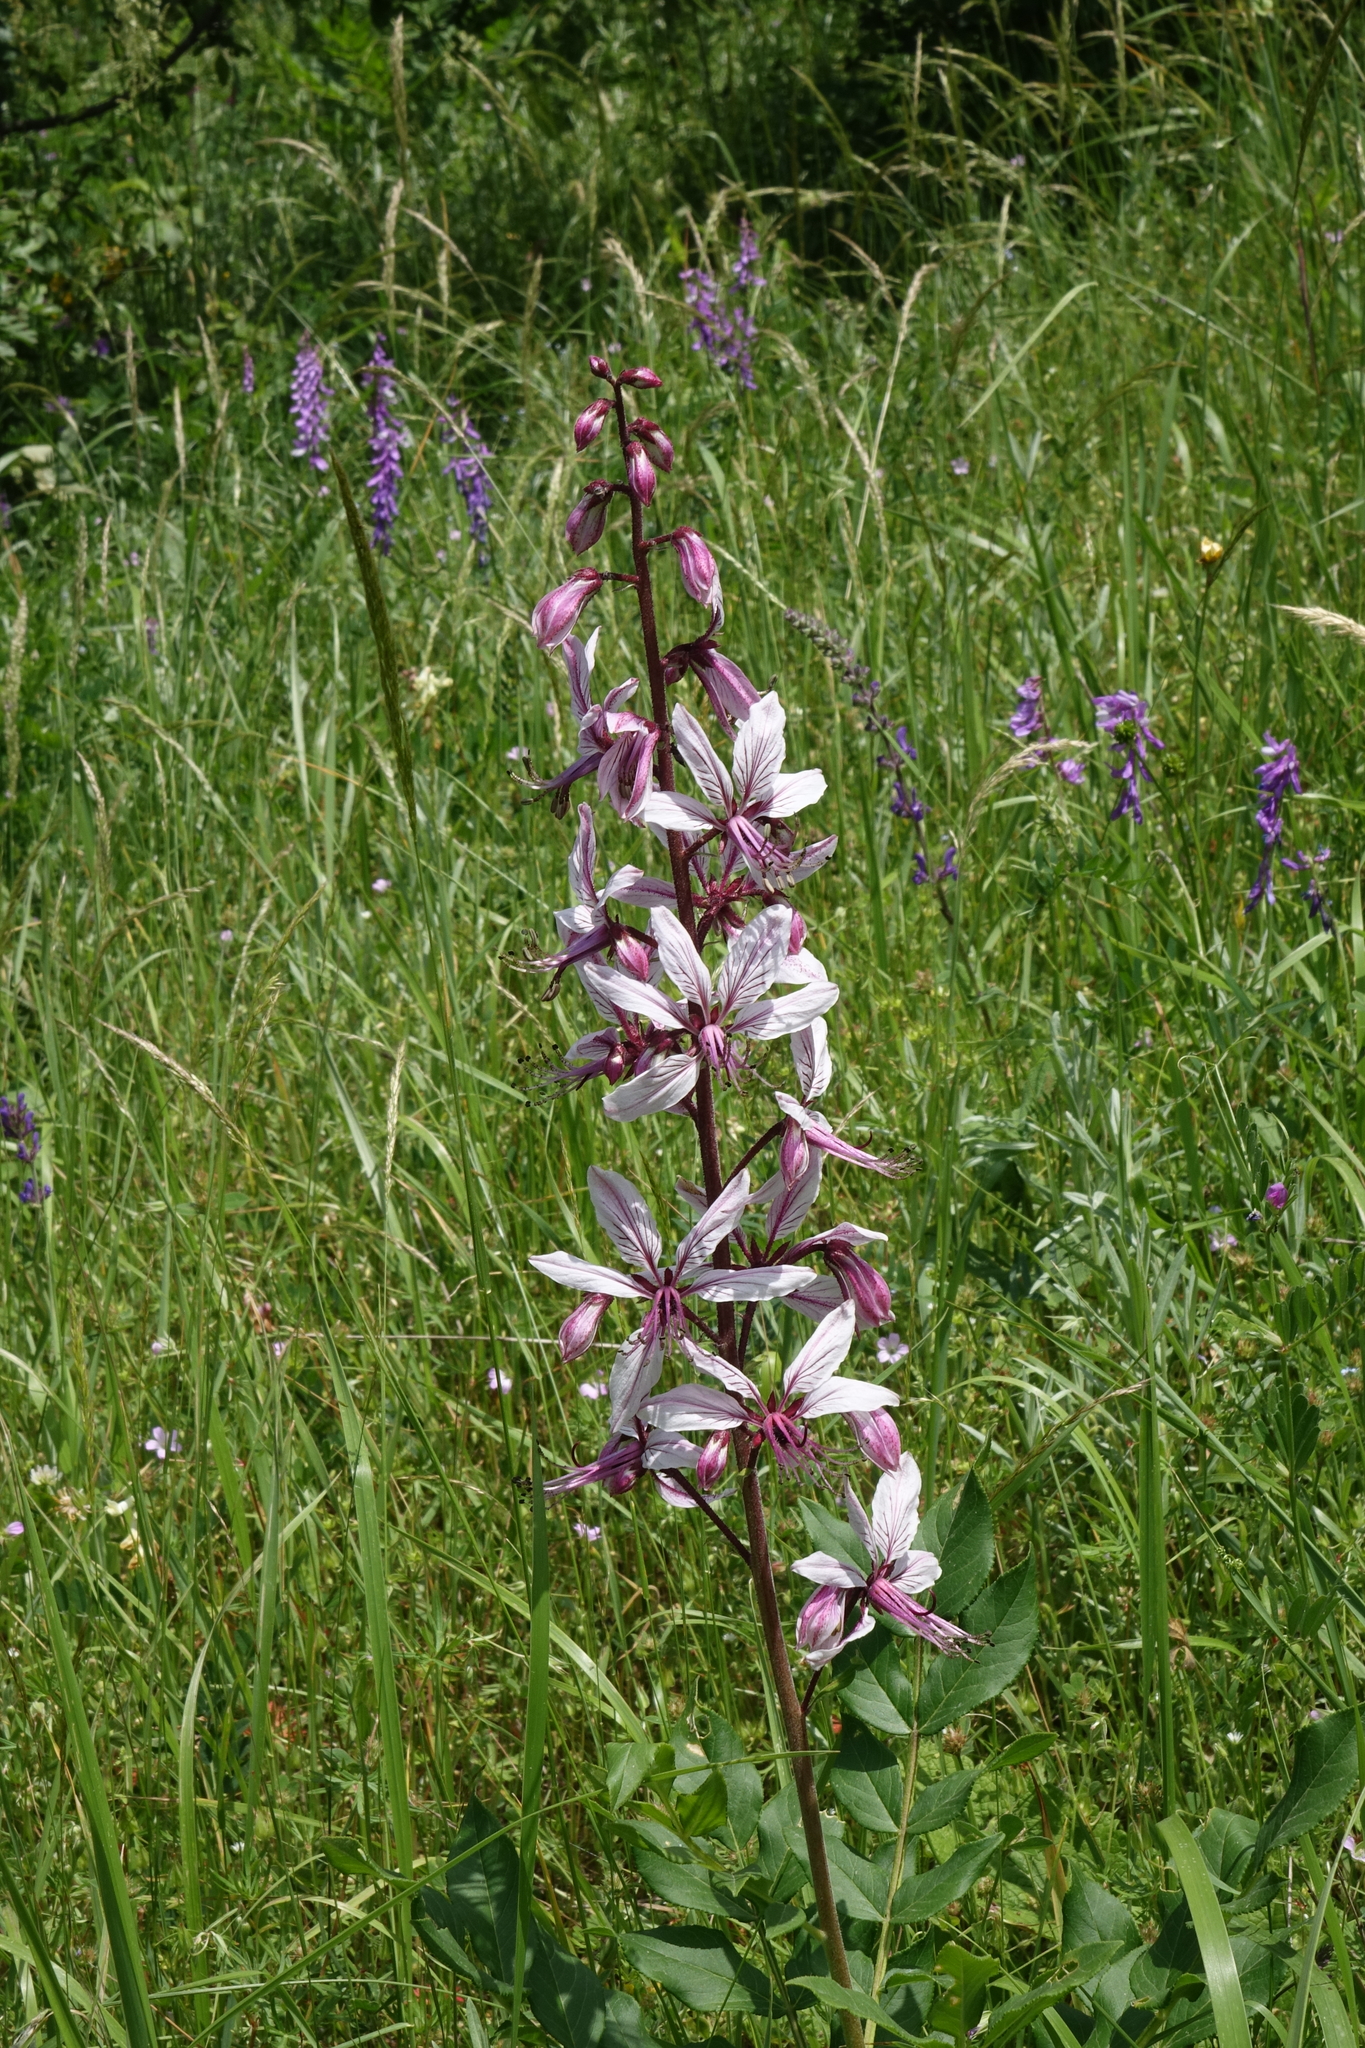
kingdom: Plantae
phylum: Tracheophyta
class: Magnoliopsida
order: Sapindales
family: Rutaceae
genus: Dictamnus
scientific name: Dictamnus albus
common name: Gasplant
